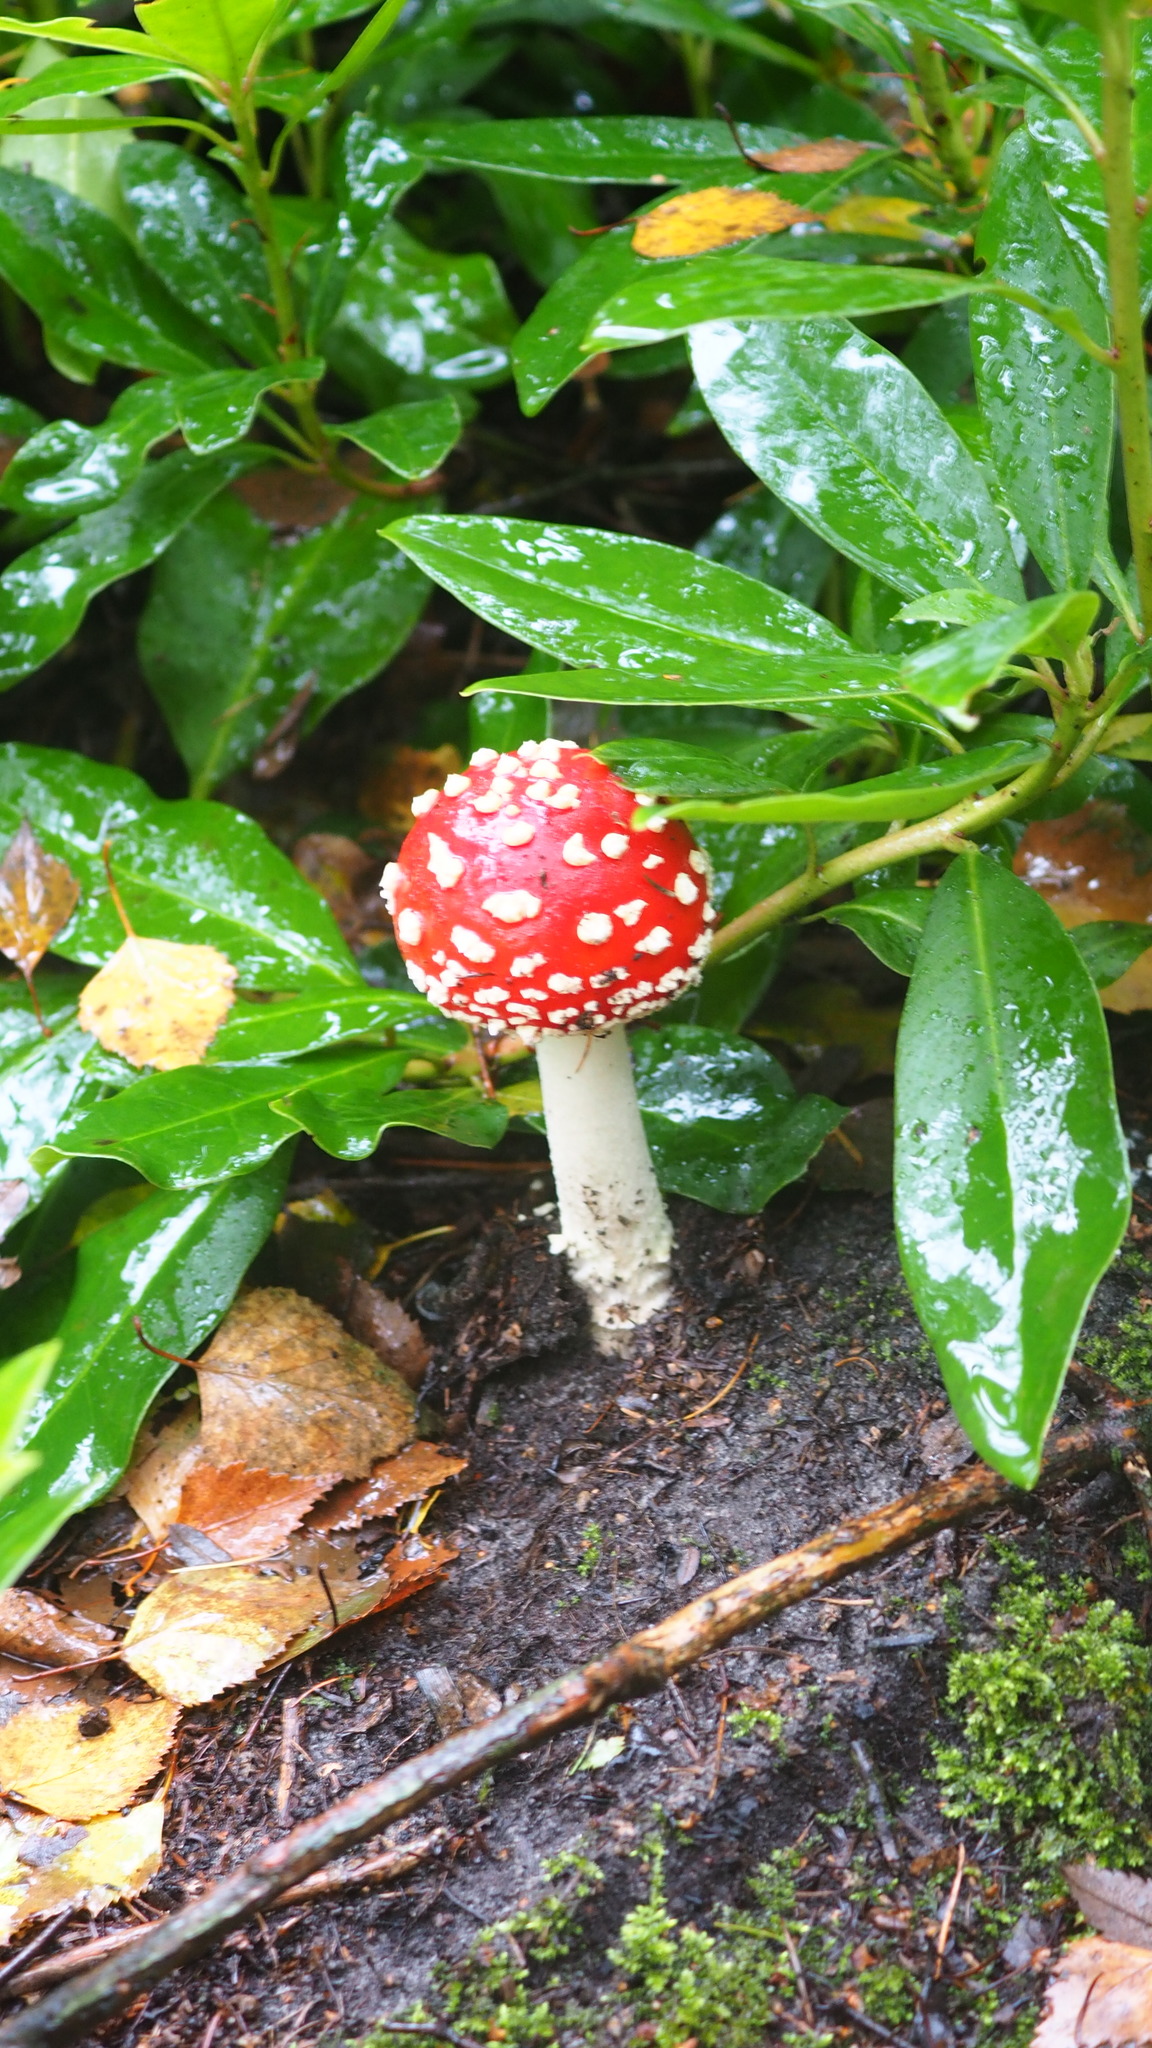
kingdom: Fungi
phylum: Basidiomycota
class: Agaricomycetes
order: Agaricales
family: Amanitaceae
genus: Amanita
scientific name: Amanita muscaria
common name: Fly agaric
